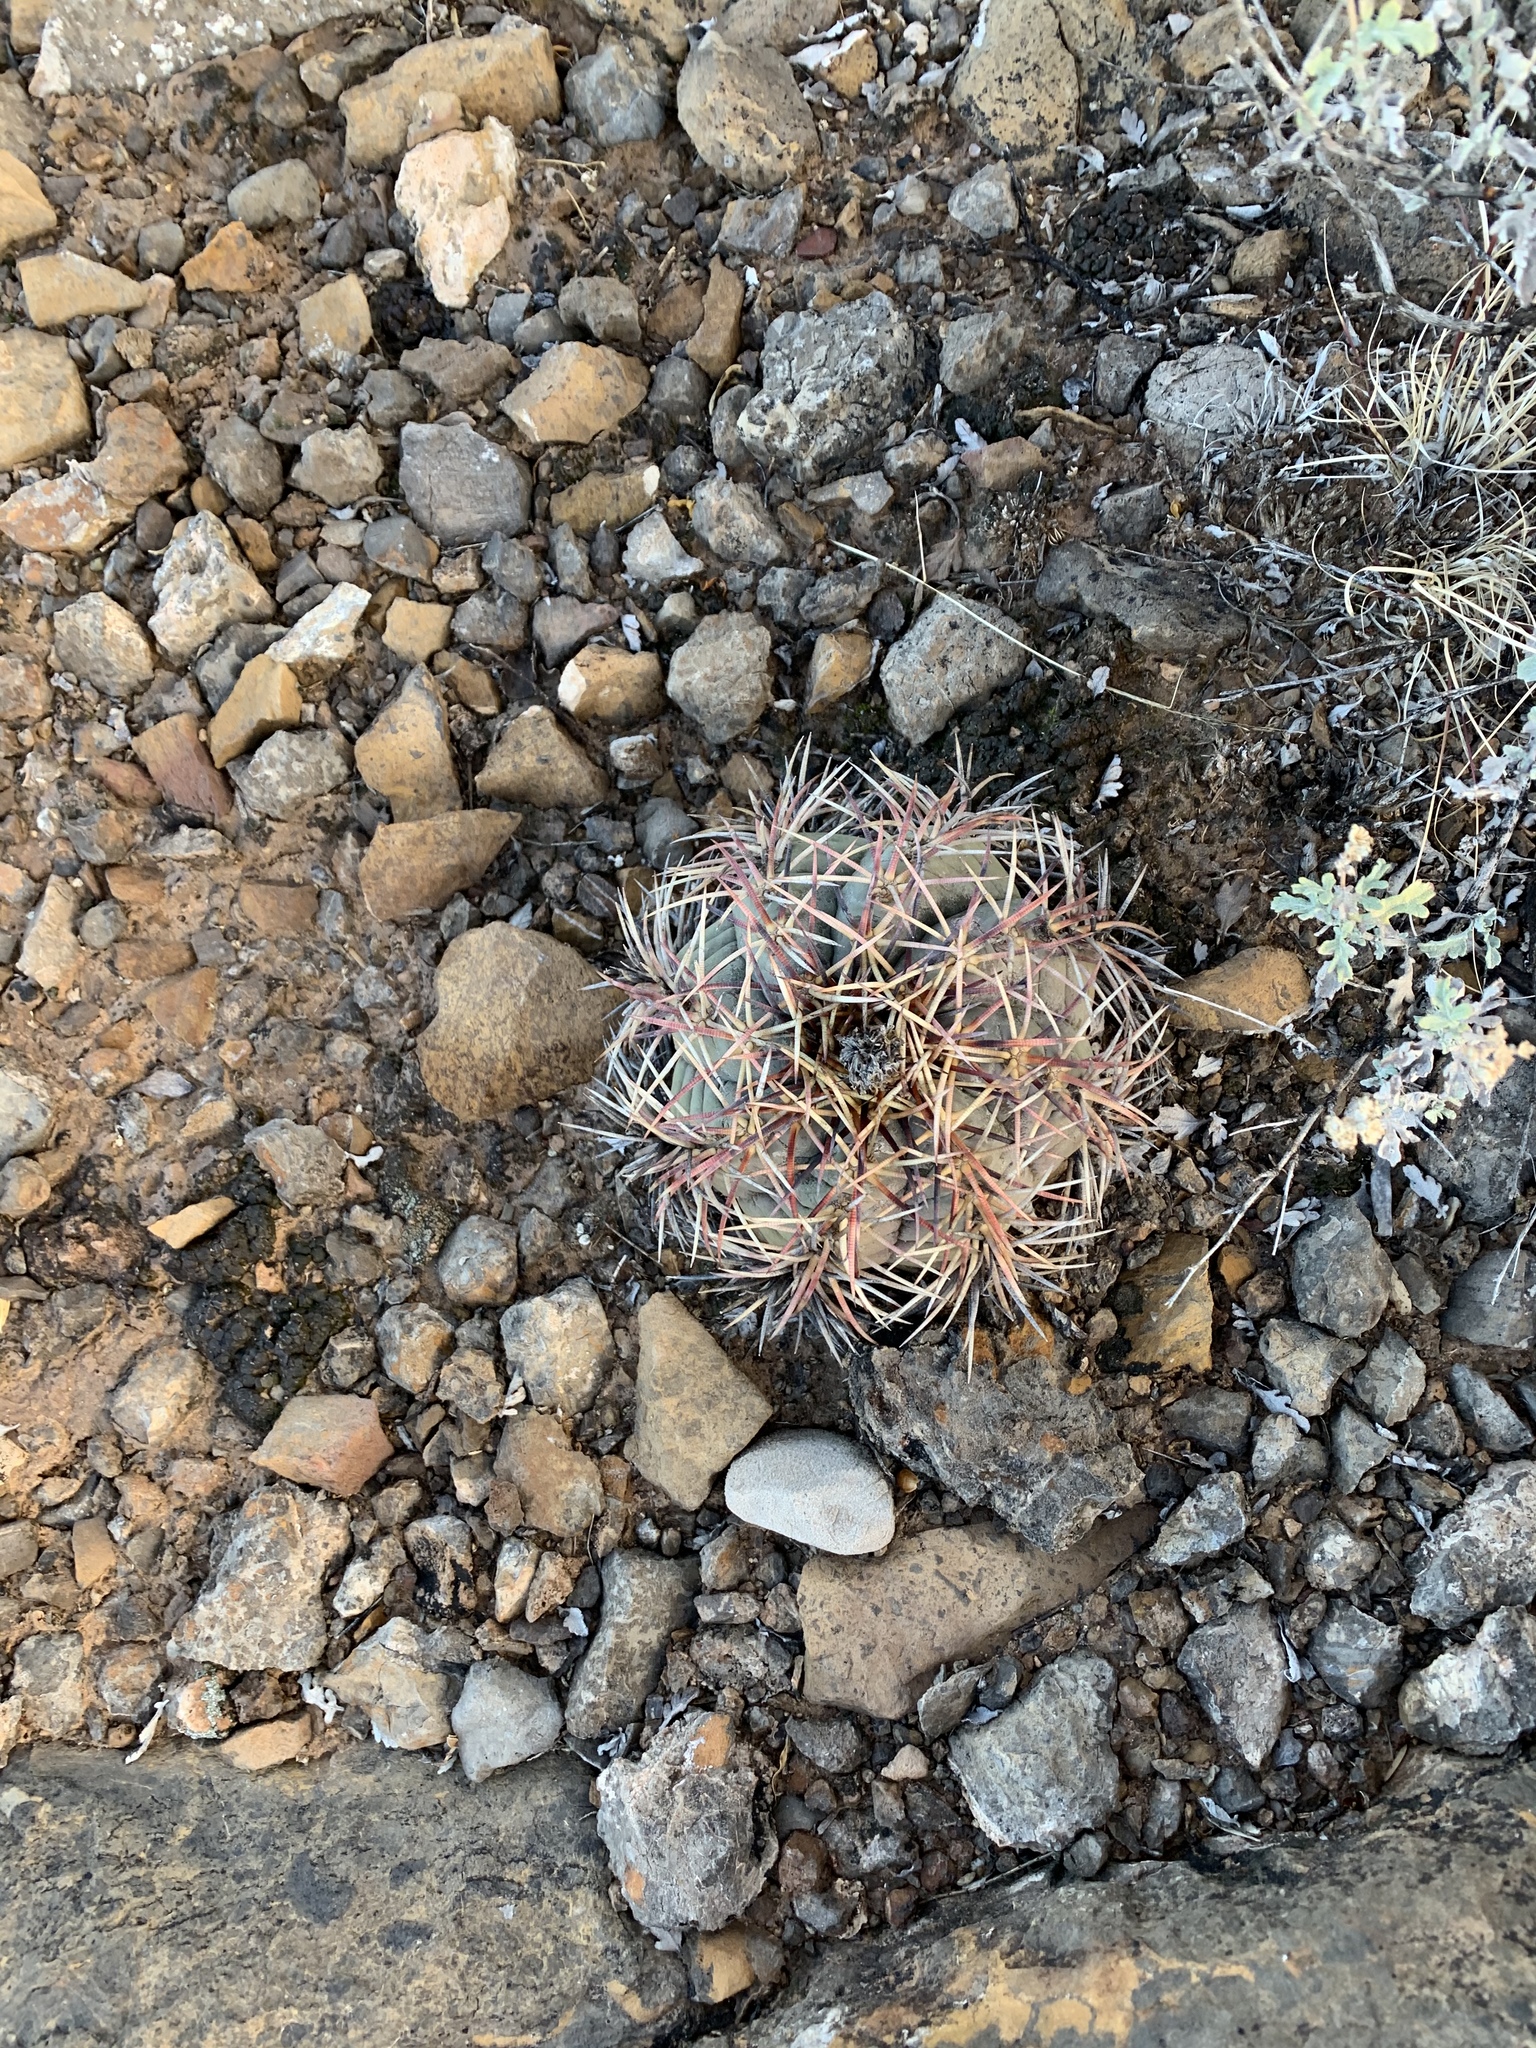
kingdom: Plantae
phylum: Tracheophyta
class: Magnoliopsida
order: Caryophyllales
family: Cactaceae
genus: Echinocactus
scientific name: Echinocactus horizonthalonius
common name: Devilshead
